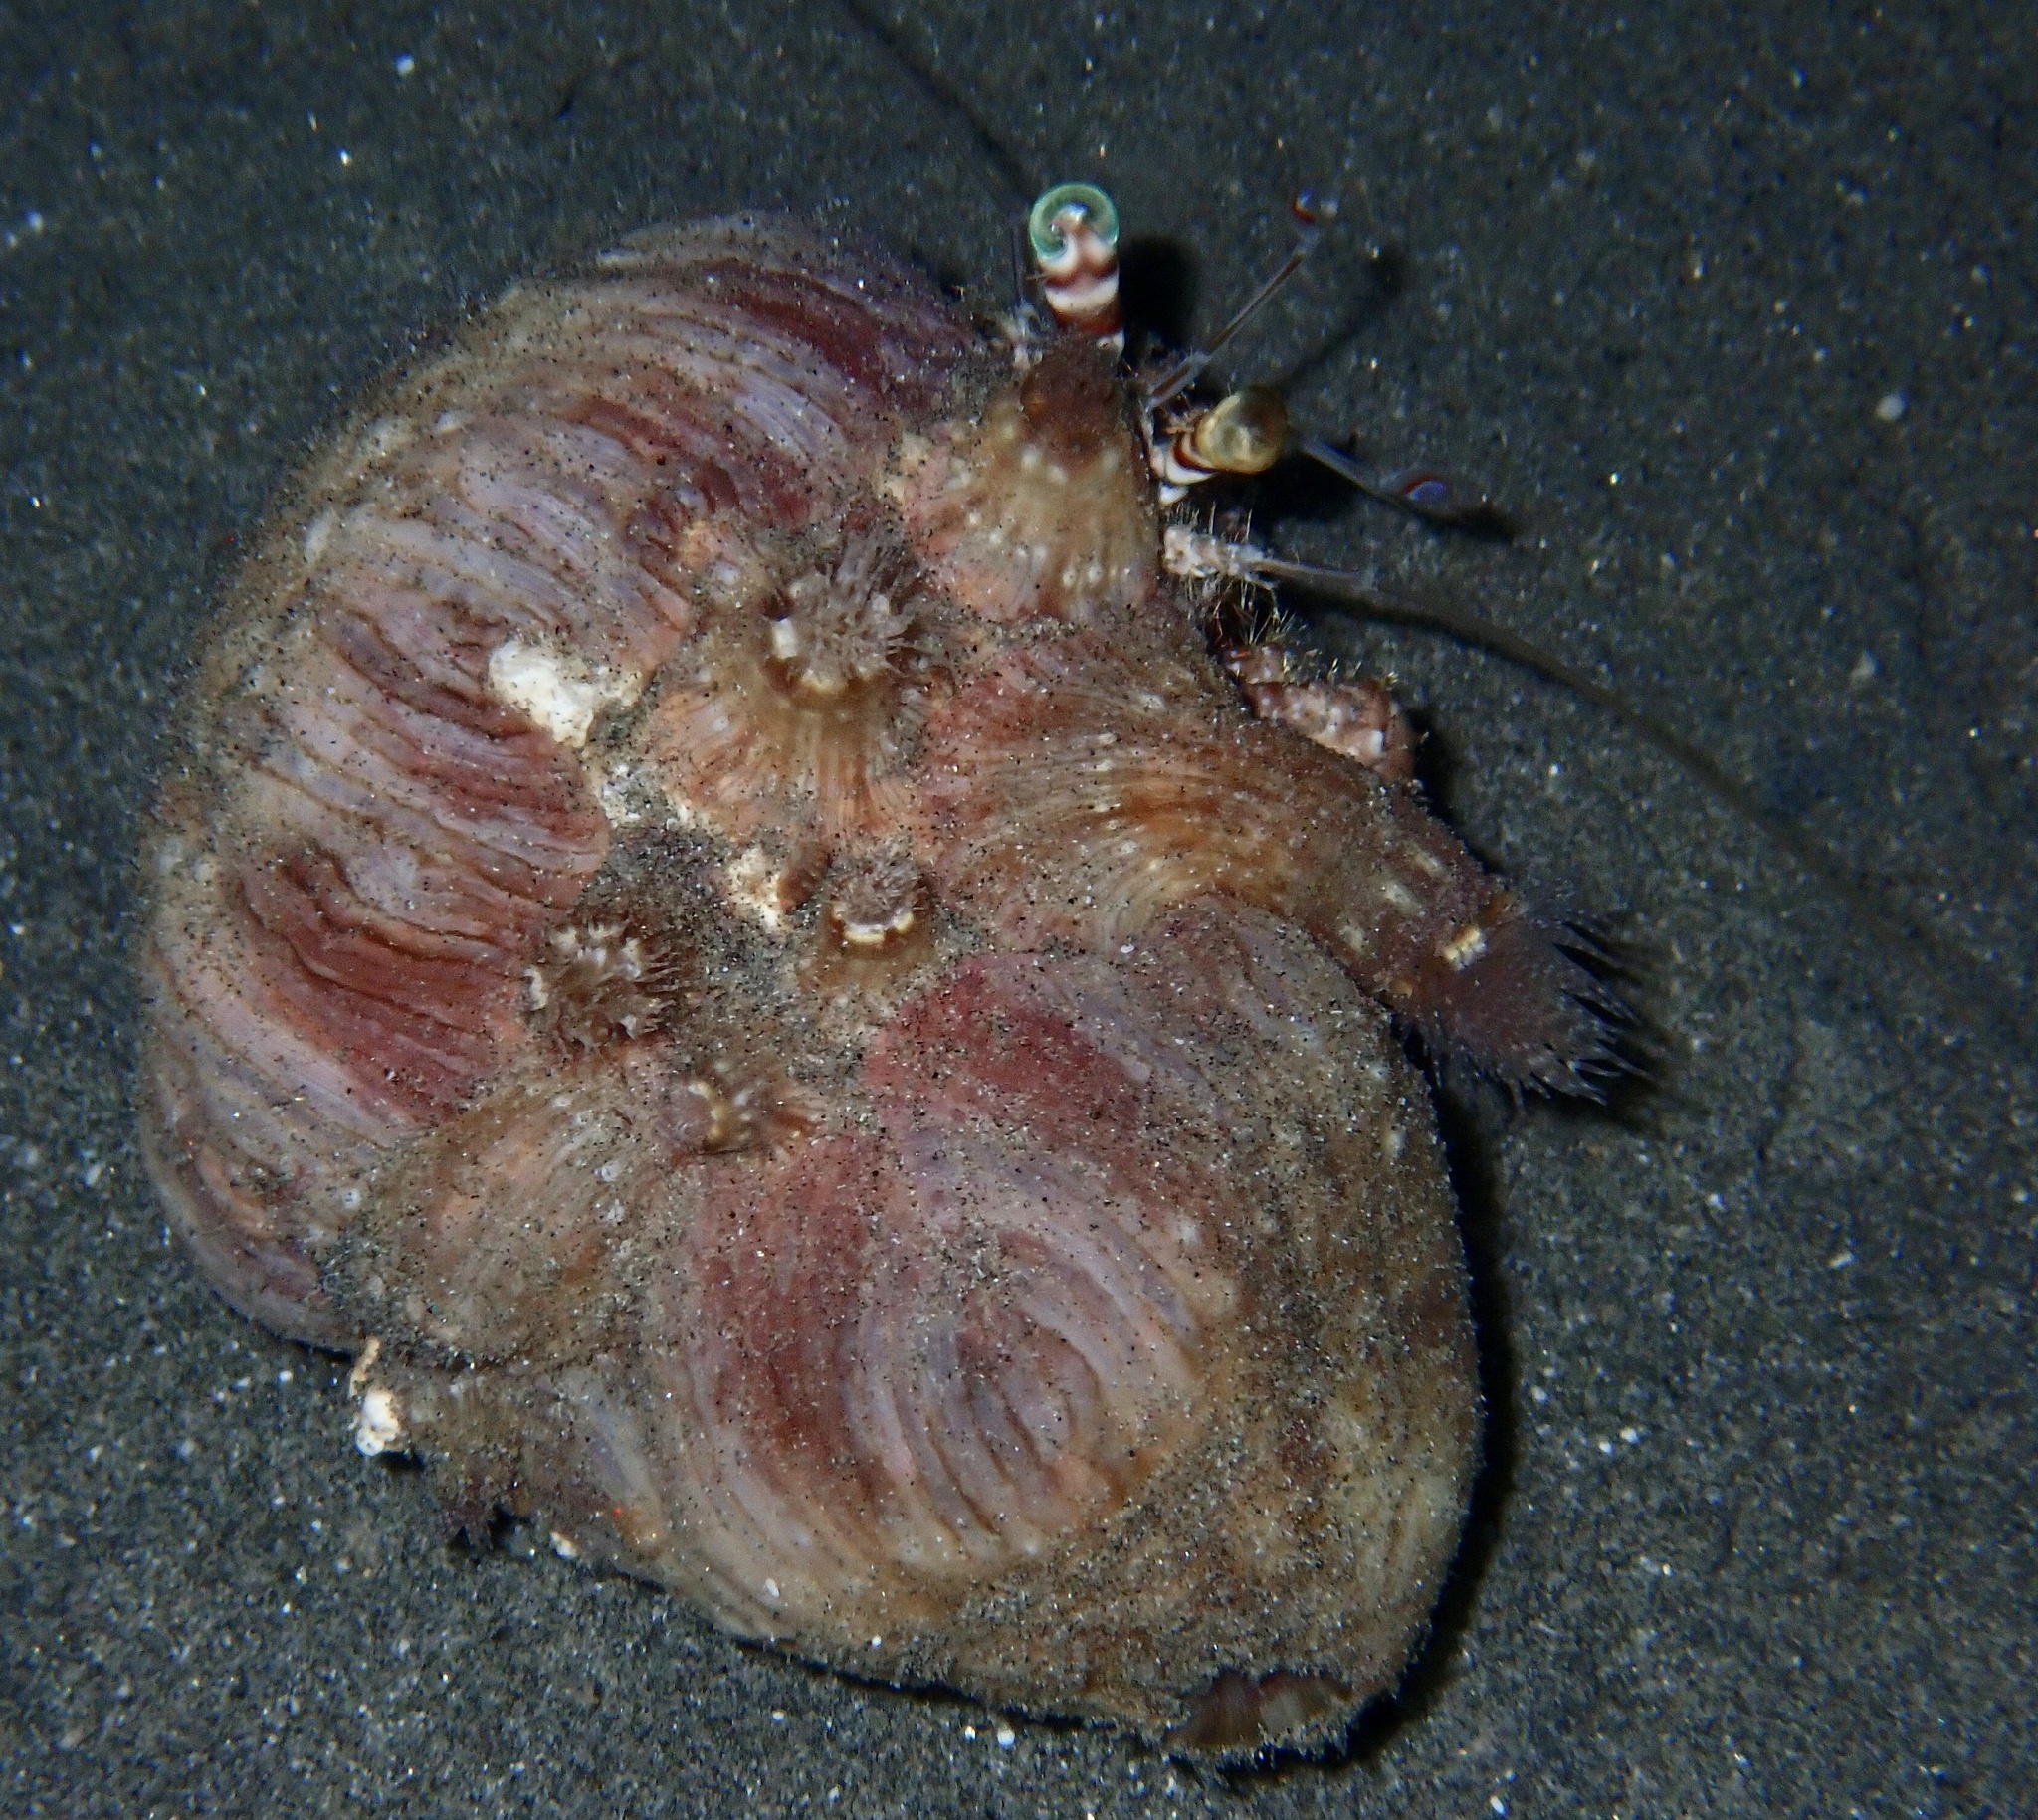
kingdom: Animalia
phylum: Arthropoda
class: Malacostraca
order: Decapoda
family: Diogenidae
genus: Dardanus
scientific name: Dardanus tinctor
